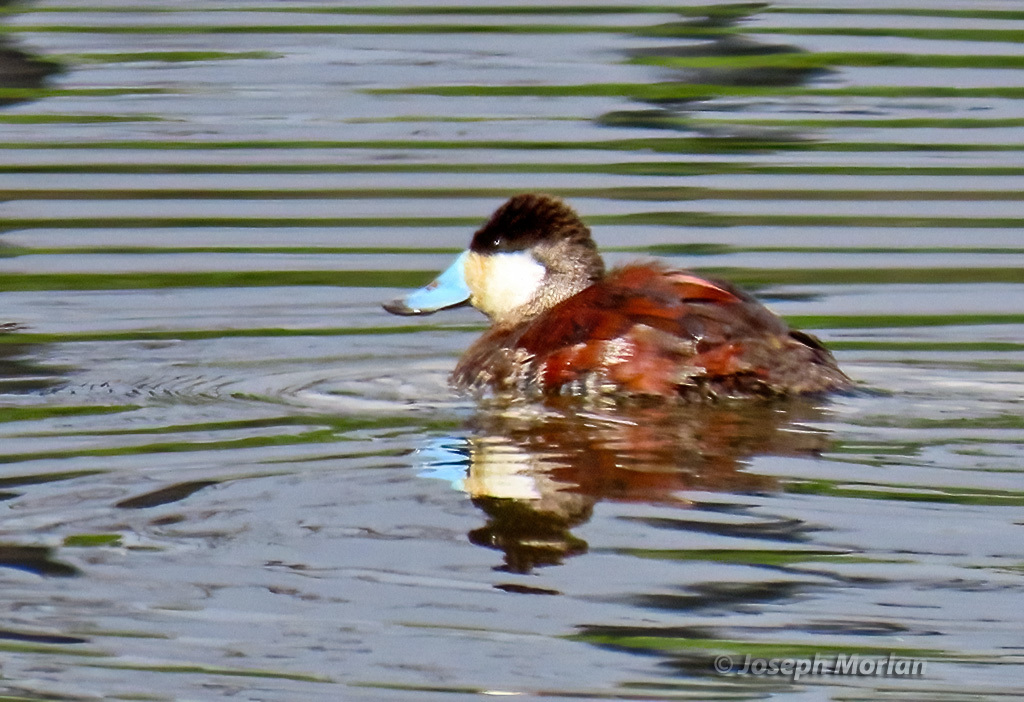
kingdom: Animalia
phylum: Chordata
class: Aves
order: Anseriformes
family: Anatidae
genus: Oxyura
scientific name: Oxyura jamaicensis
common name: Ruddy duck
